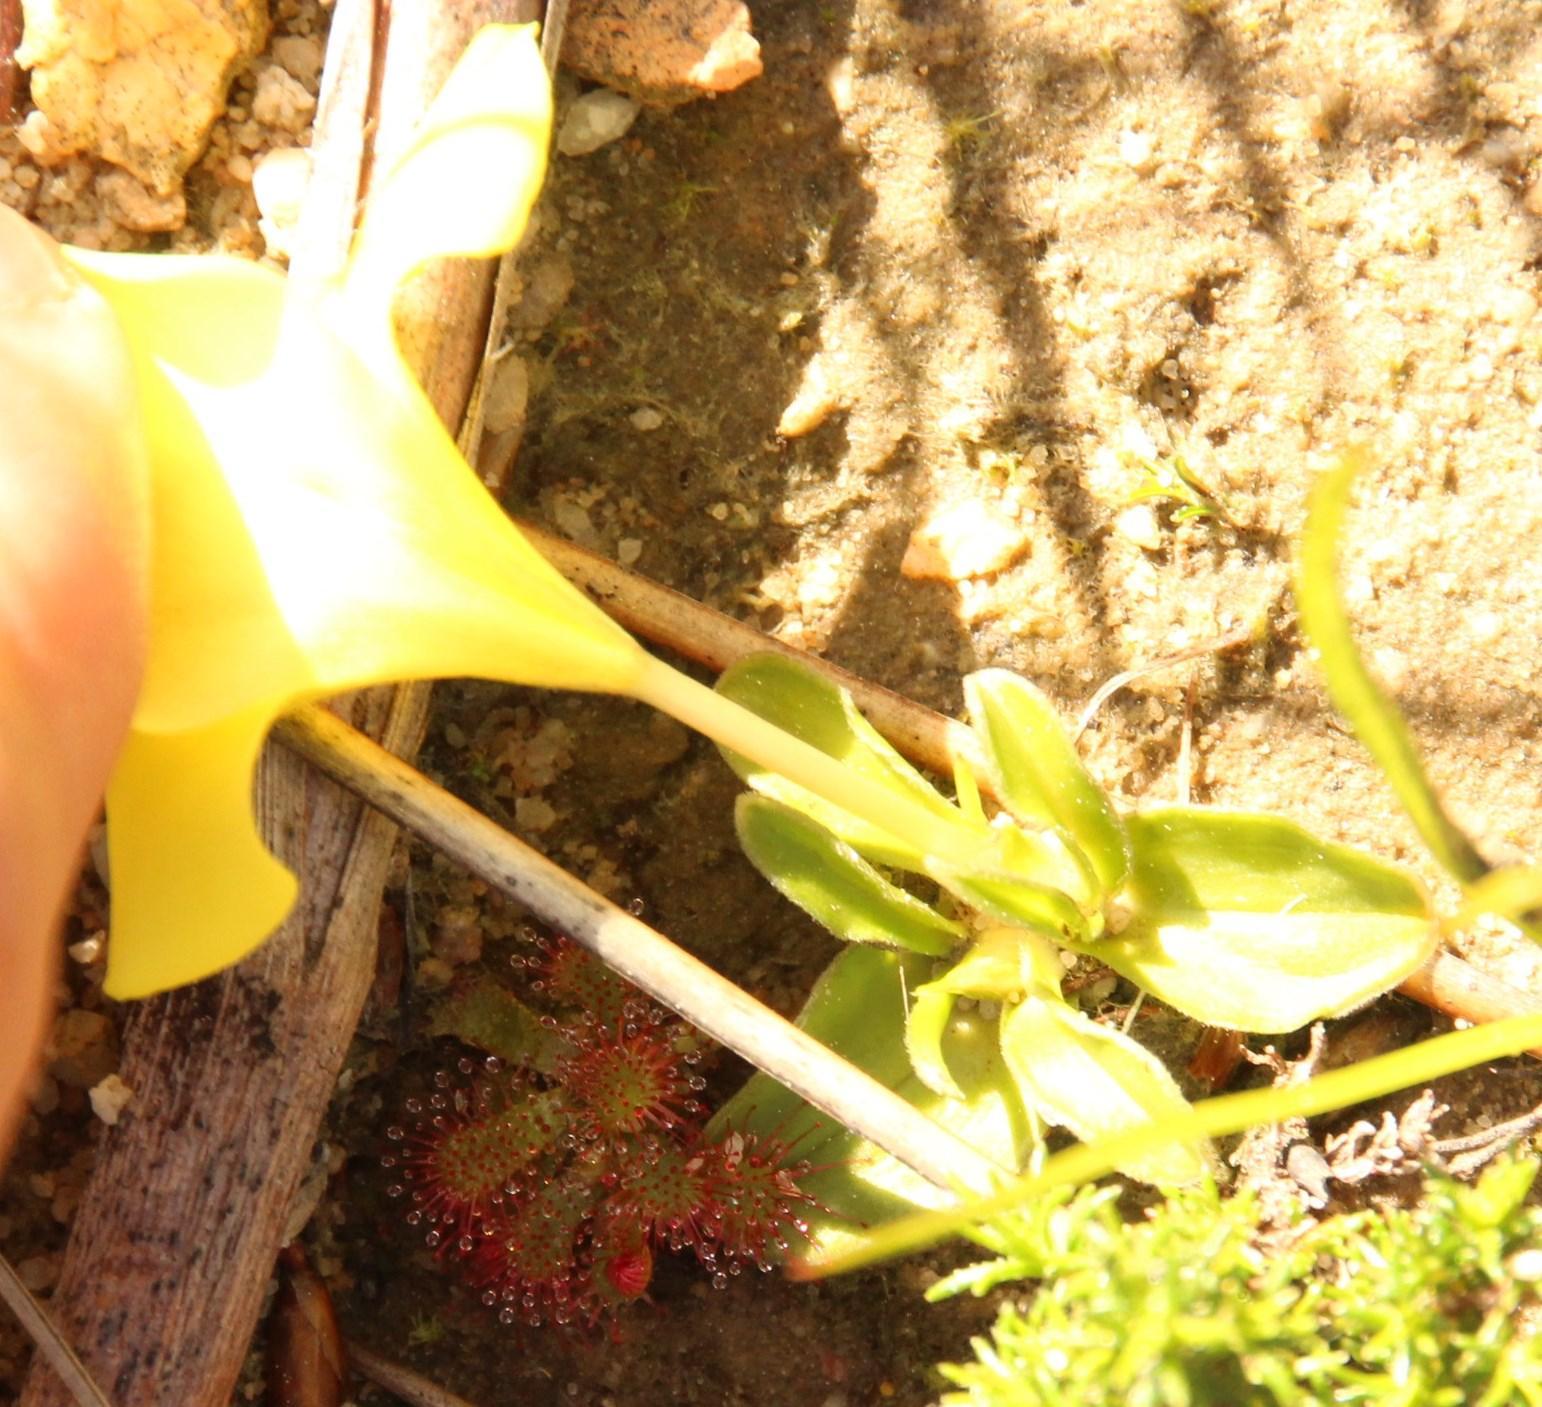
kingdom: Plantae
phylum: Tracheophyta
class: Liliopsida
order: Asparagales
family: Iridaceae
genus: Moraea
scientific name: Moraea galaxia
